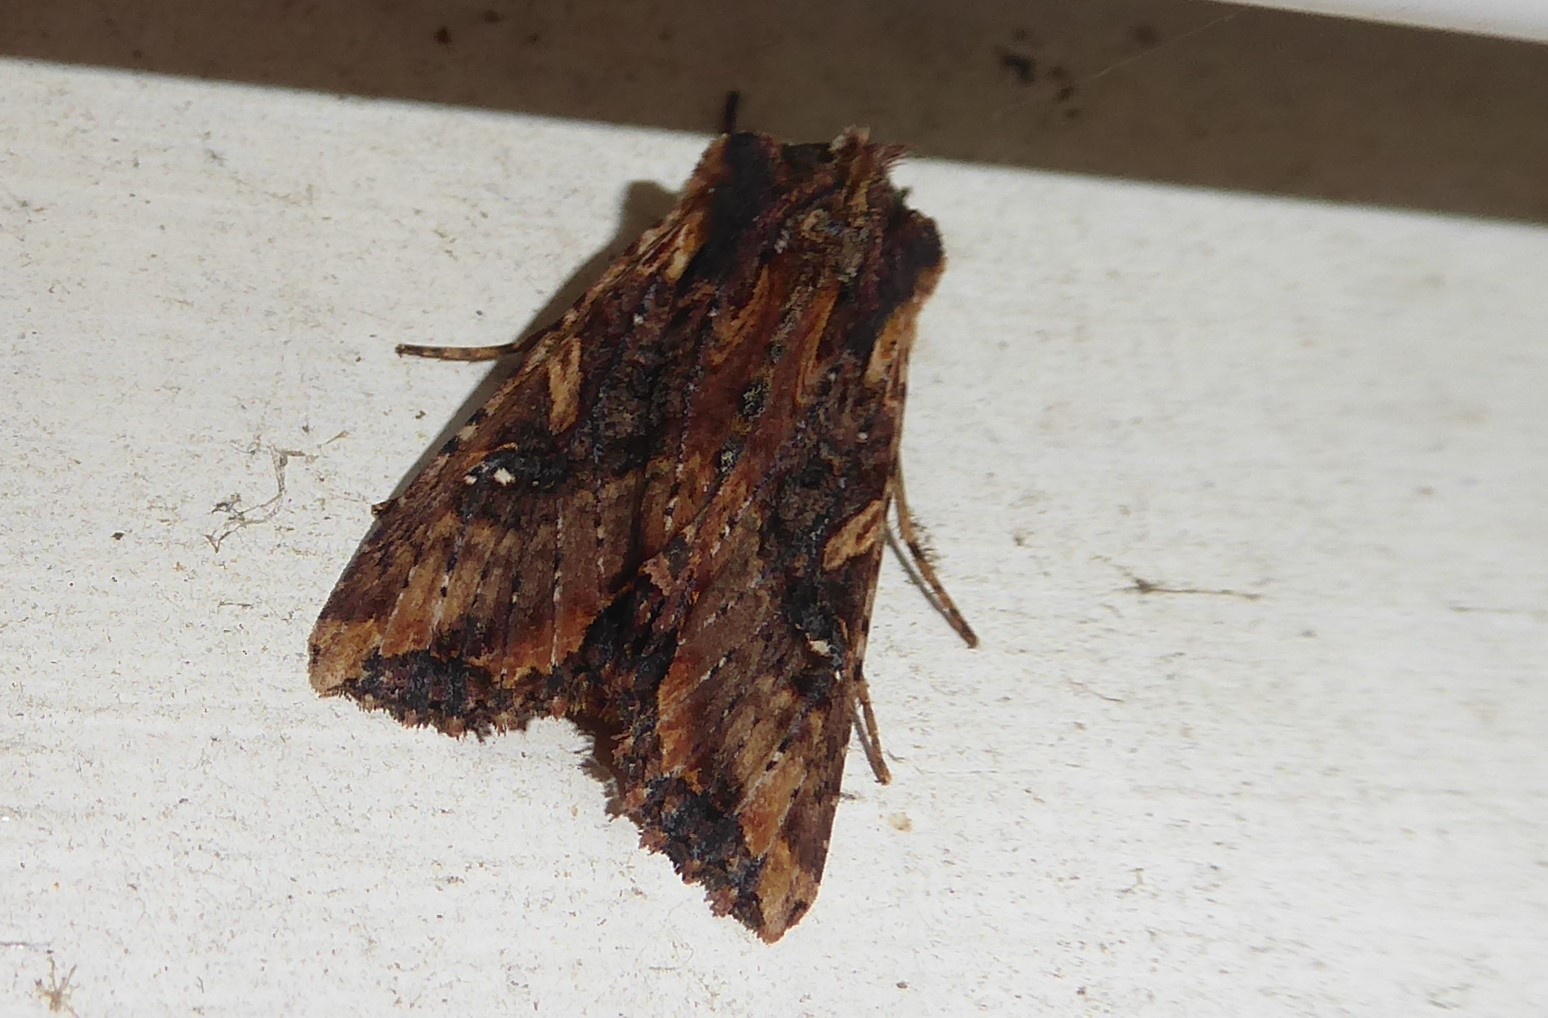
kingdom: Animalia
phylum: Arthropoda
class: Insecta
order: Lepidoptera
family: Noctuidae
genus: Meterana
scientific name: Meterana stipata
